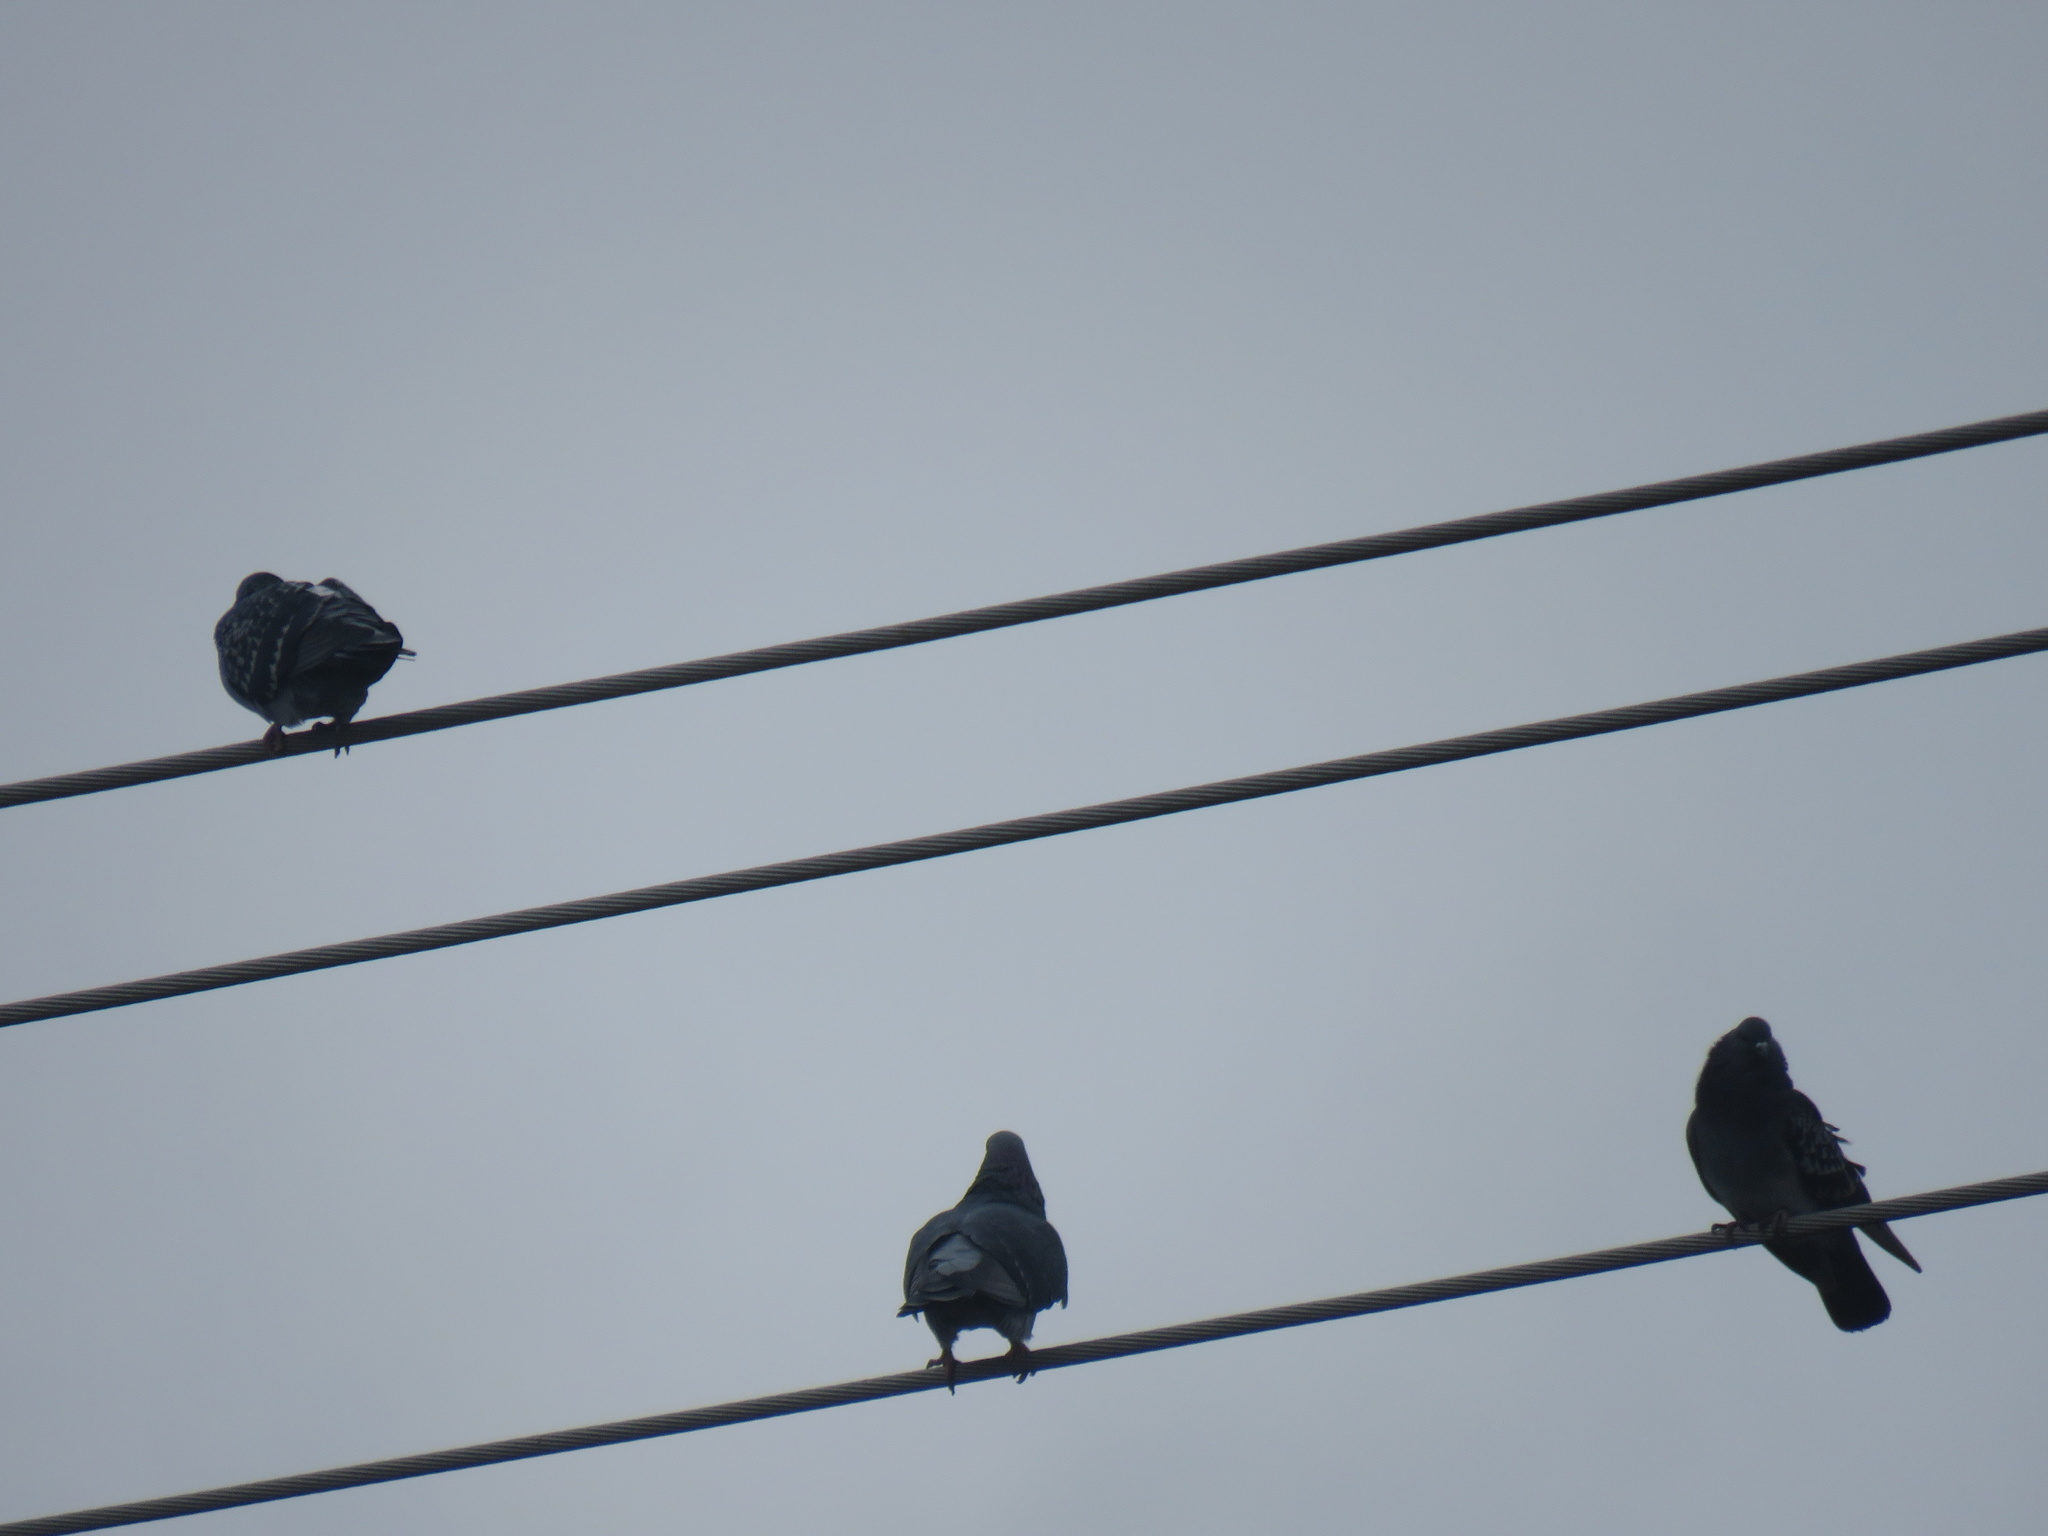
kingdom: Animalia
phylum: Chordata
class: Aves
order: Columbiformes
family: Columbidae
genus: Columba
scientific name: Columba livia
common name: Rock pigeon
